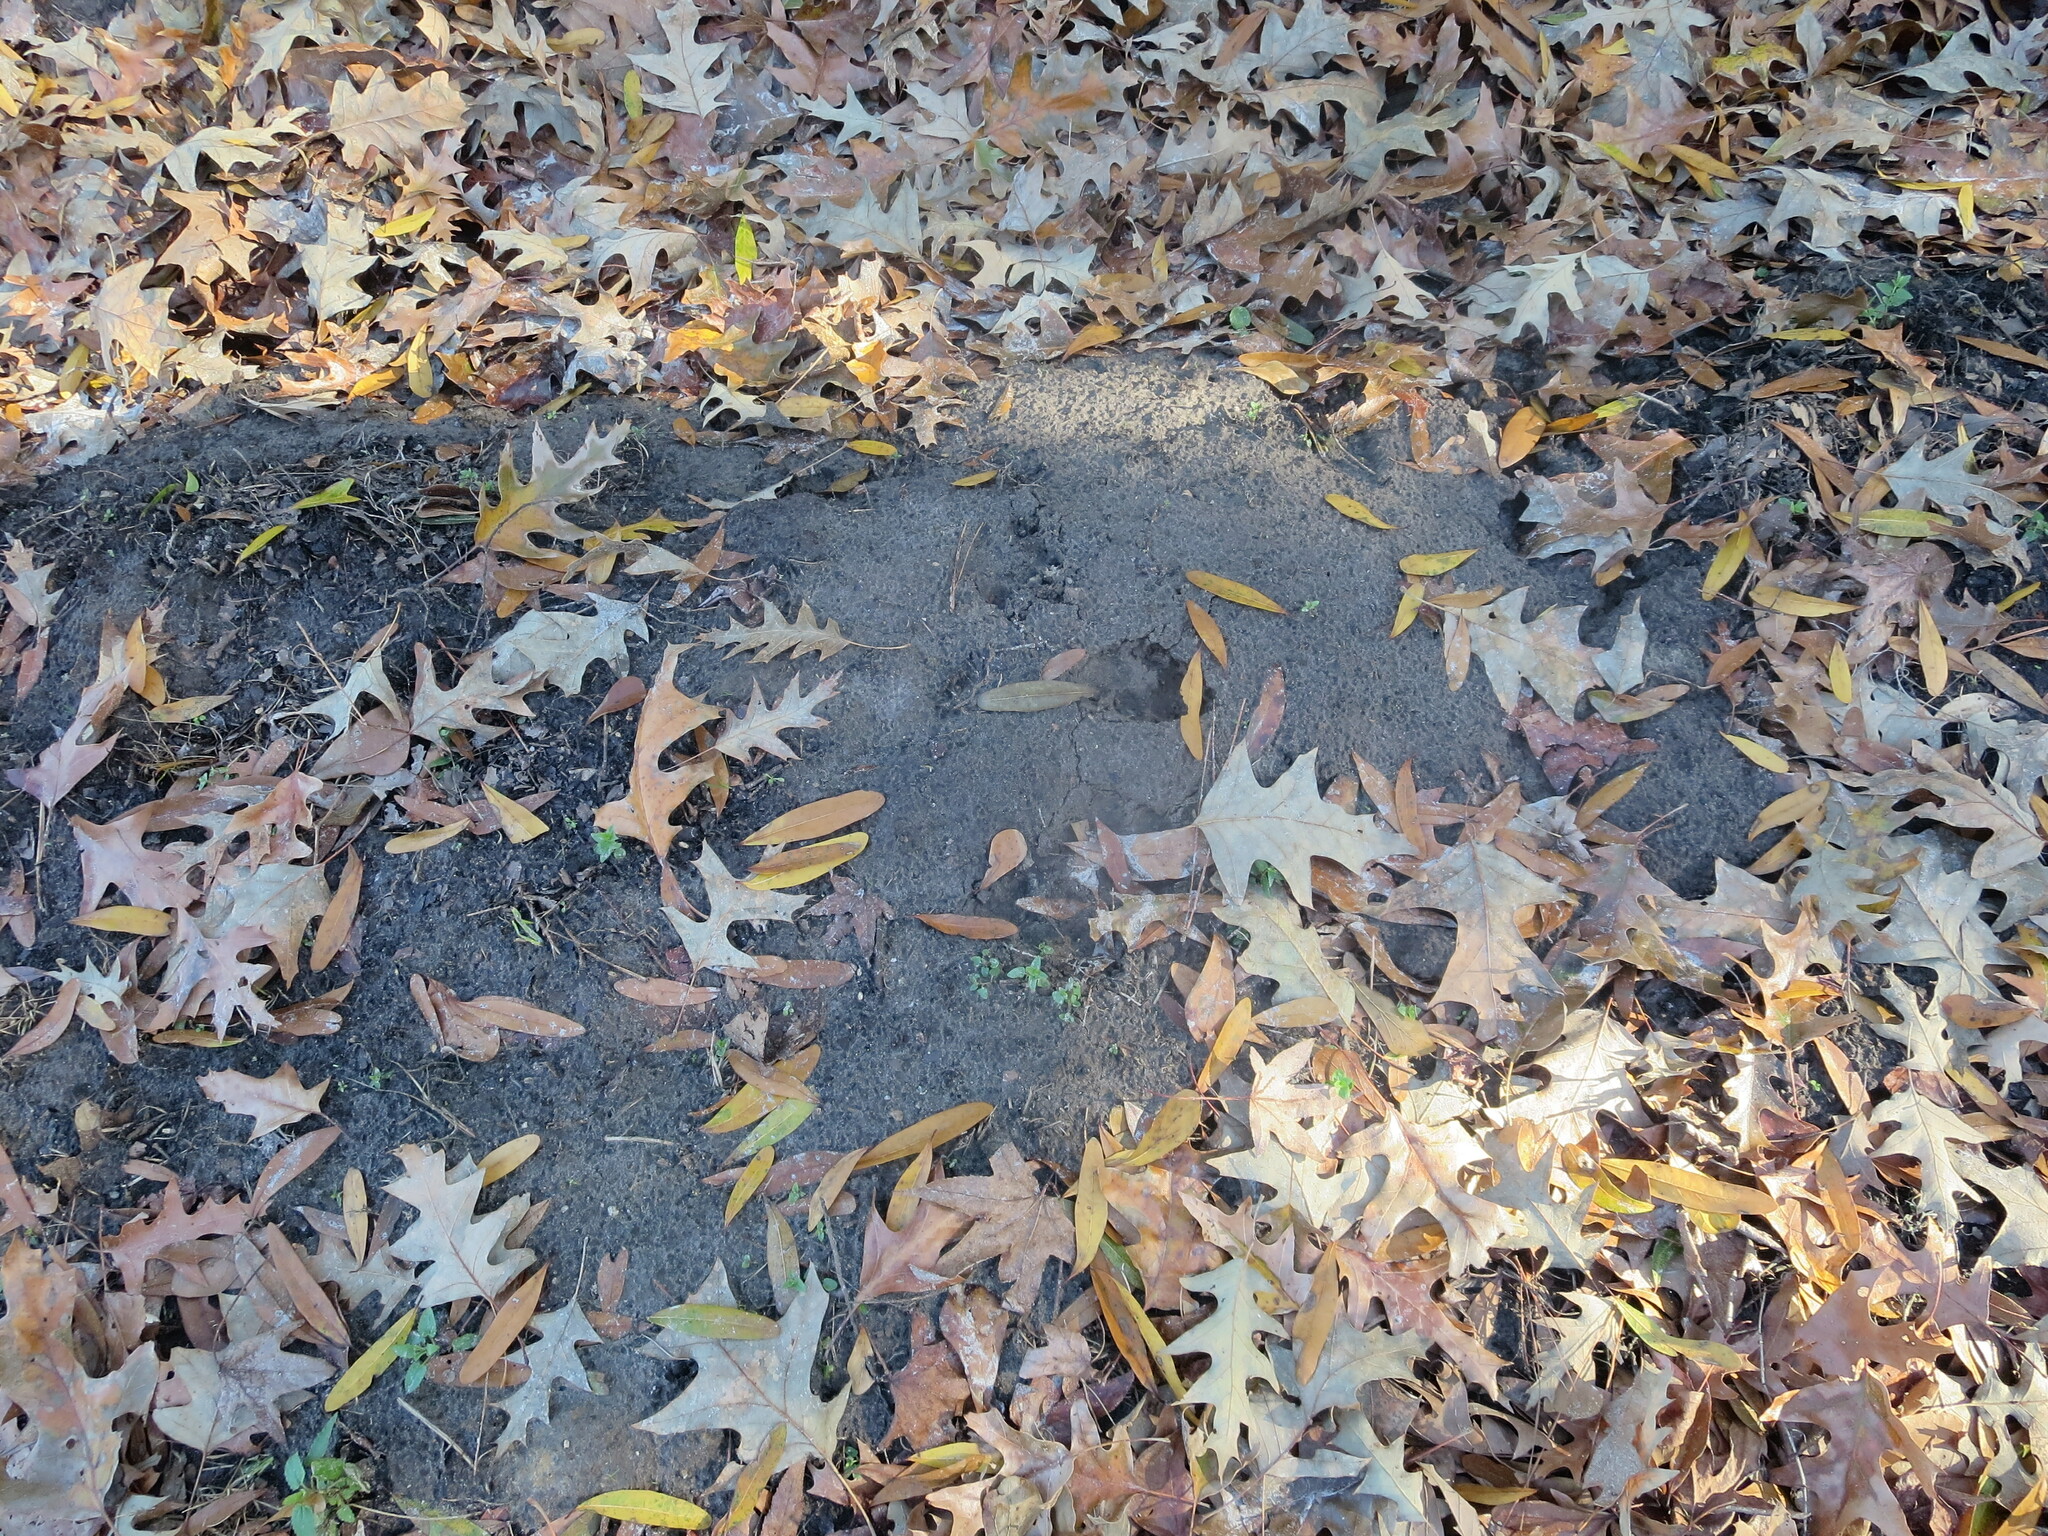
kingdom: Animalia
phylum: Arthropoda
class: Insecta
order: Hymenoptera
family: Formicidae
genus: Solenopsis
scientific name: Solenopsis invicta
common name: Red imported fire ant
